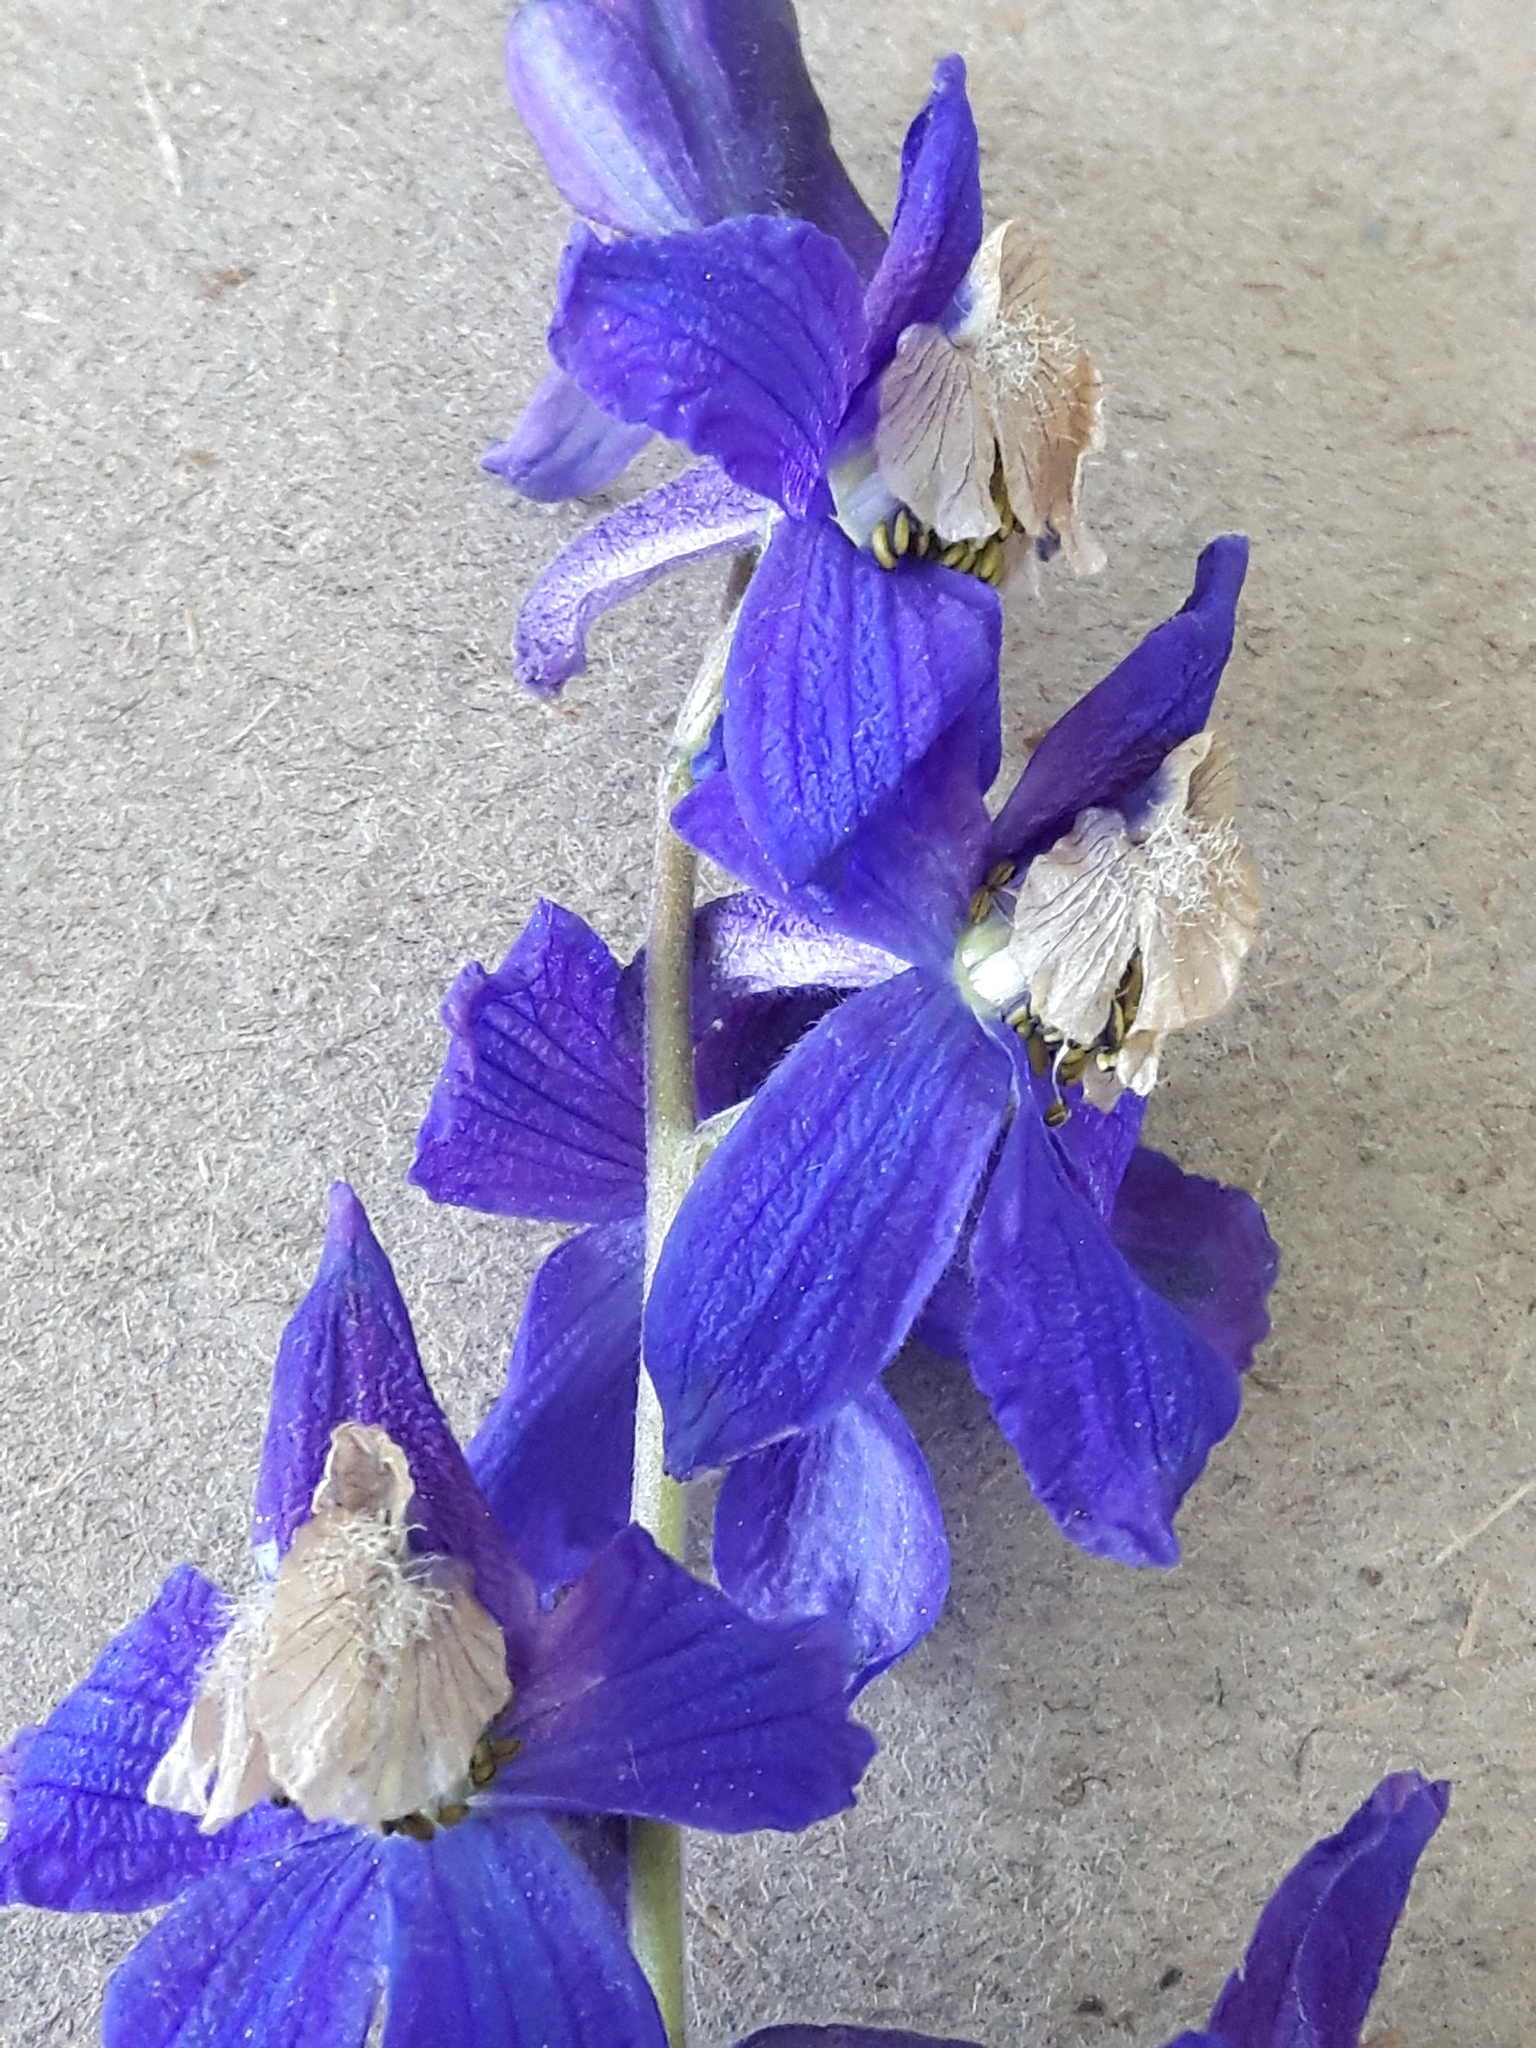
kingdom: Plantae
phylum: Tracheophyta
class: Magnoliopsida
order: Ranunculales
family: Ranunculaceae
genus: Delphinium
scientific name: Delphinium sutherlandii
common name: Sutherland's larkspur
